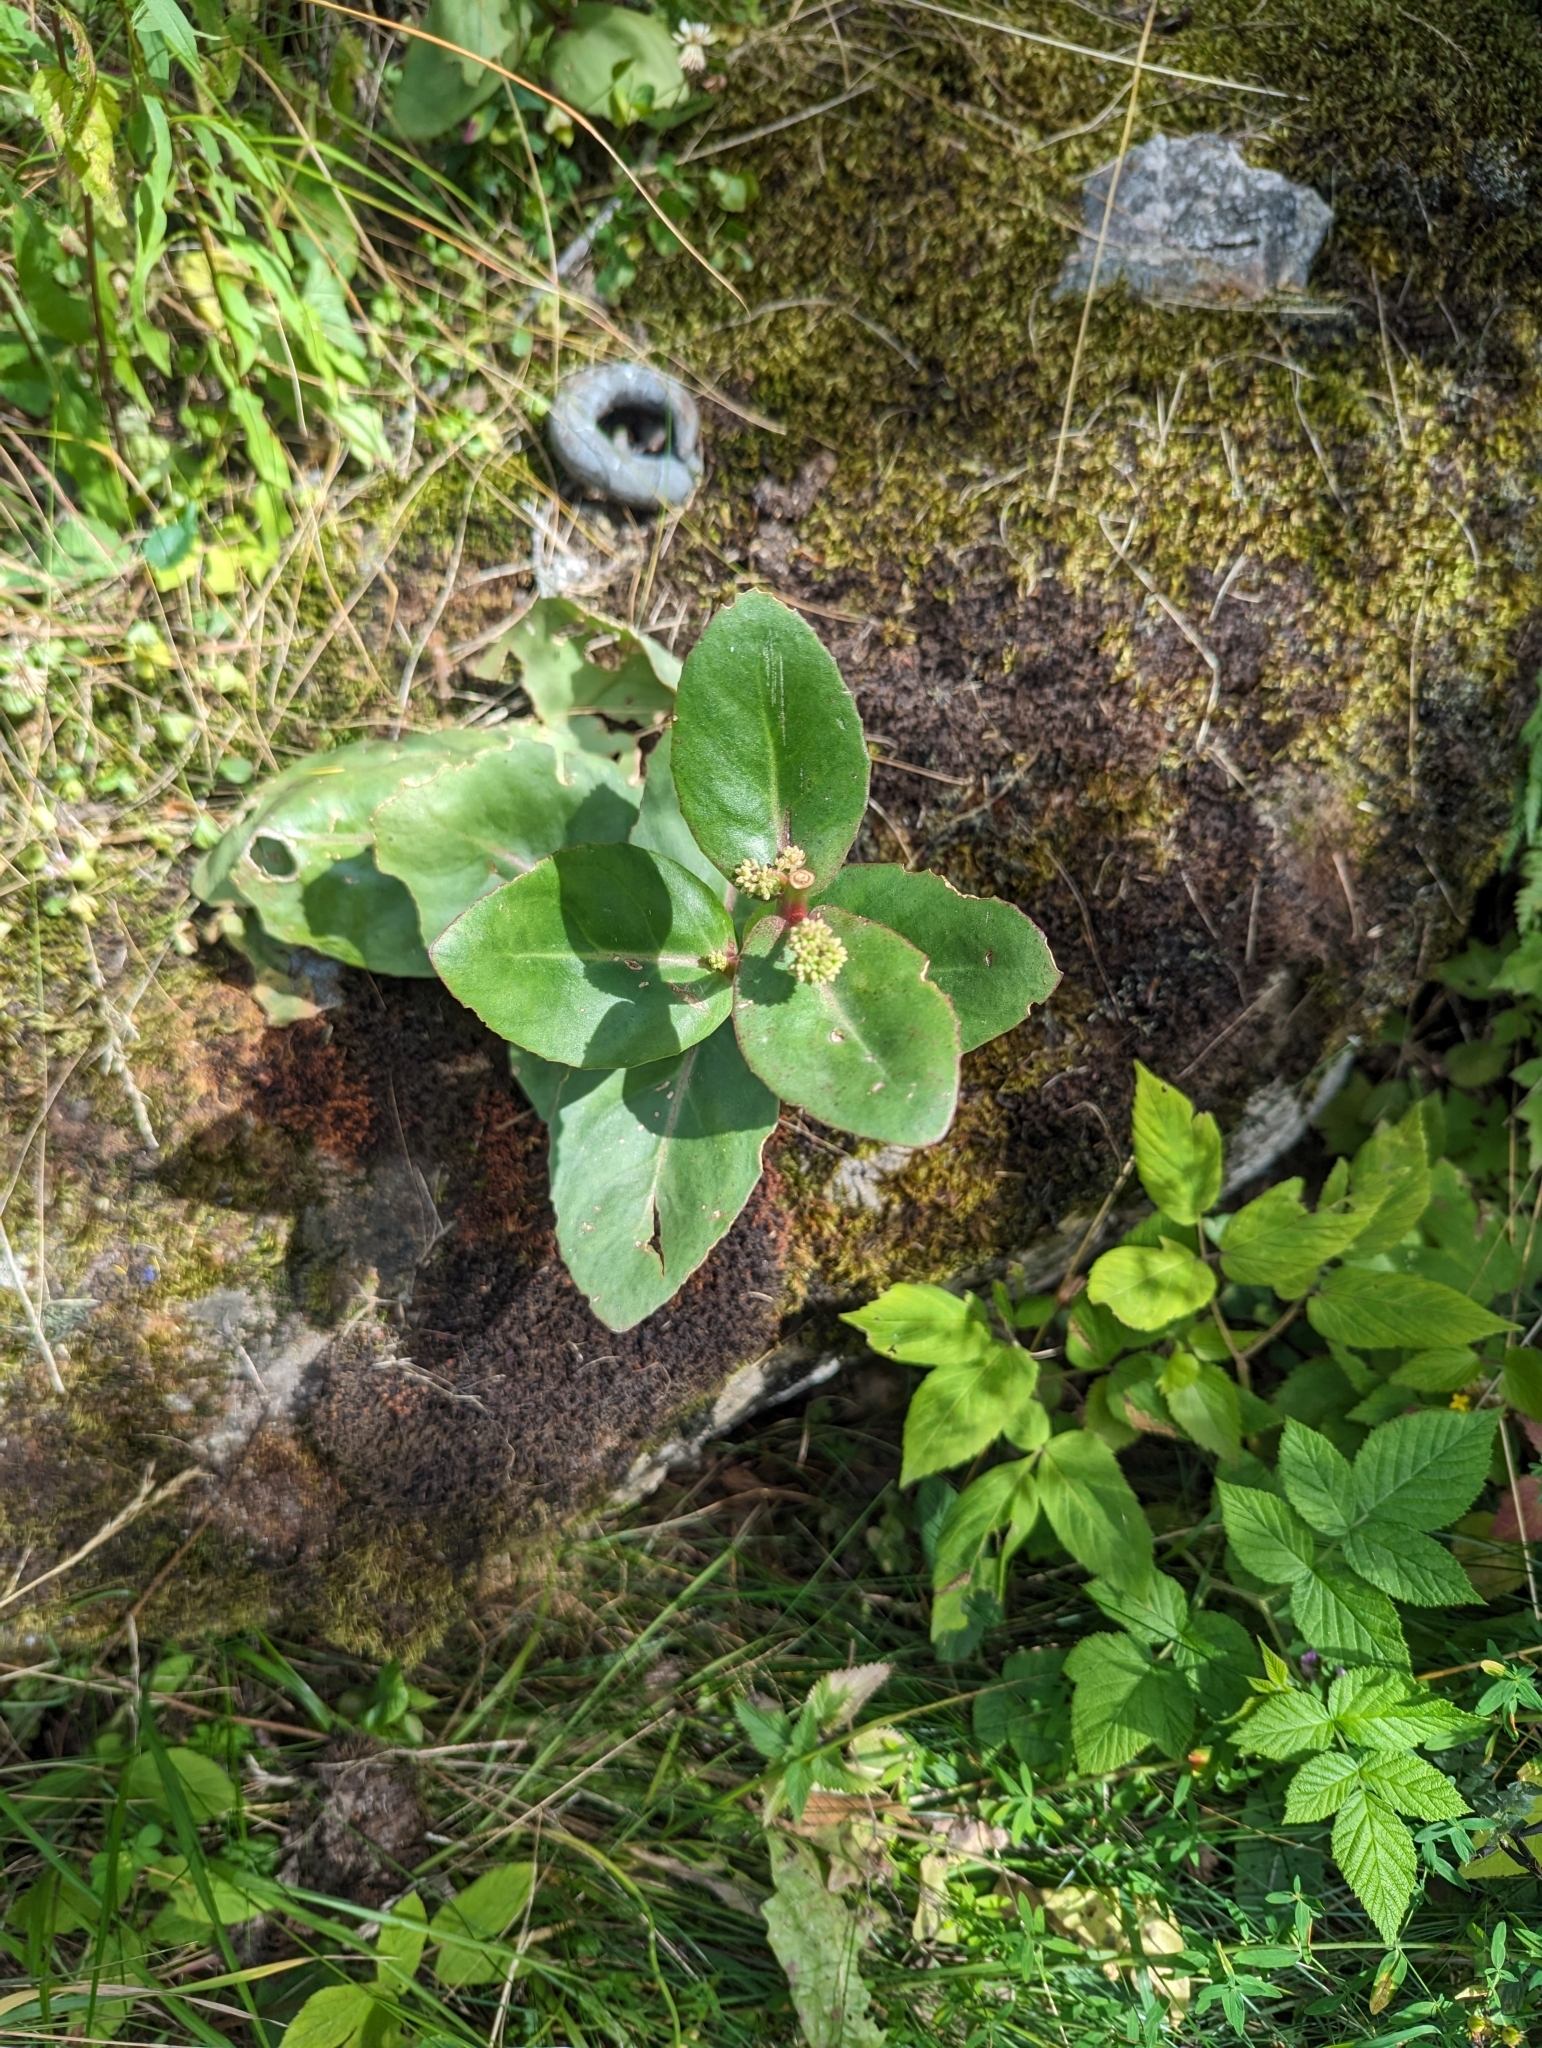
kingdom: Plantae
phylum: Tracheophyta
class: Magnoliopsida
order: Saxifragales
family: Crassulaceae
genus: Hylotelephium
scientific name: Hylotelephium maximum
